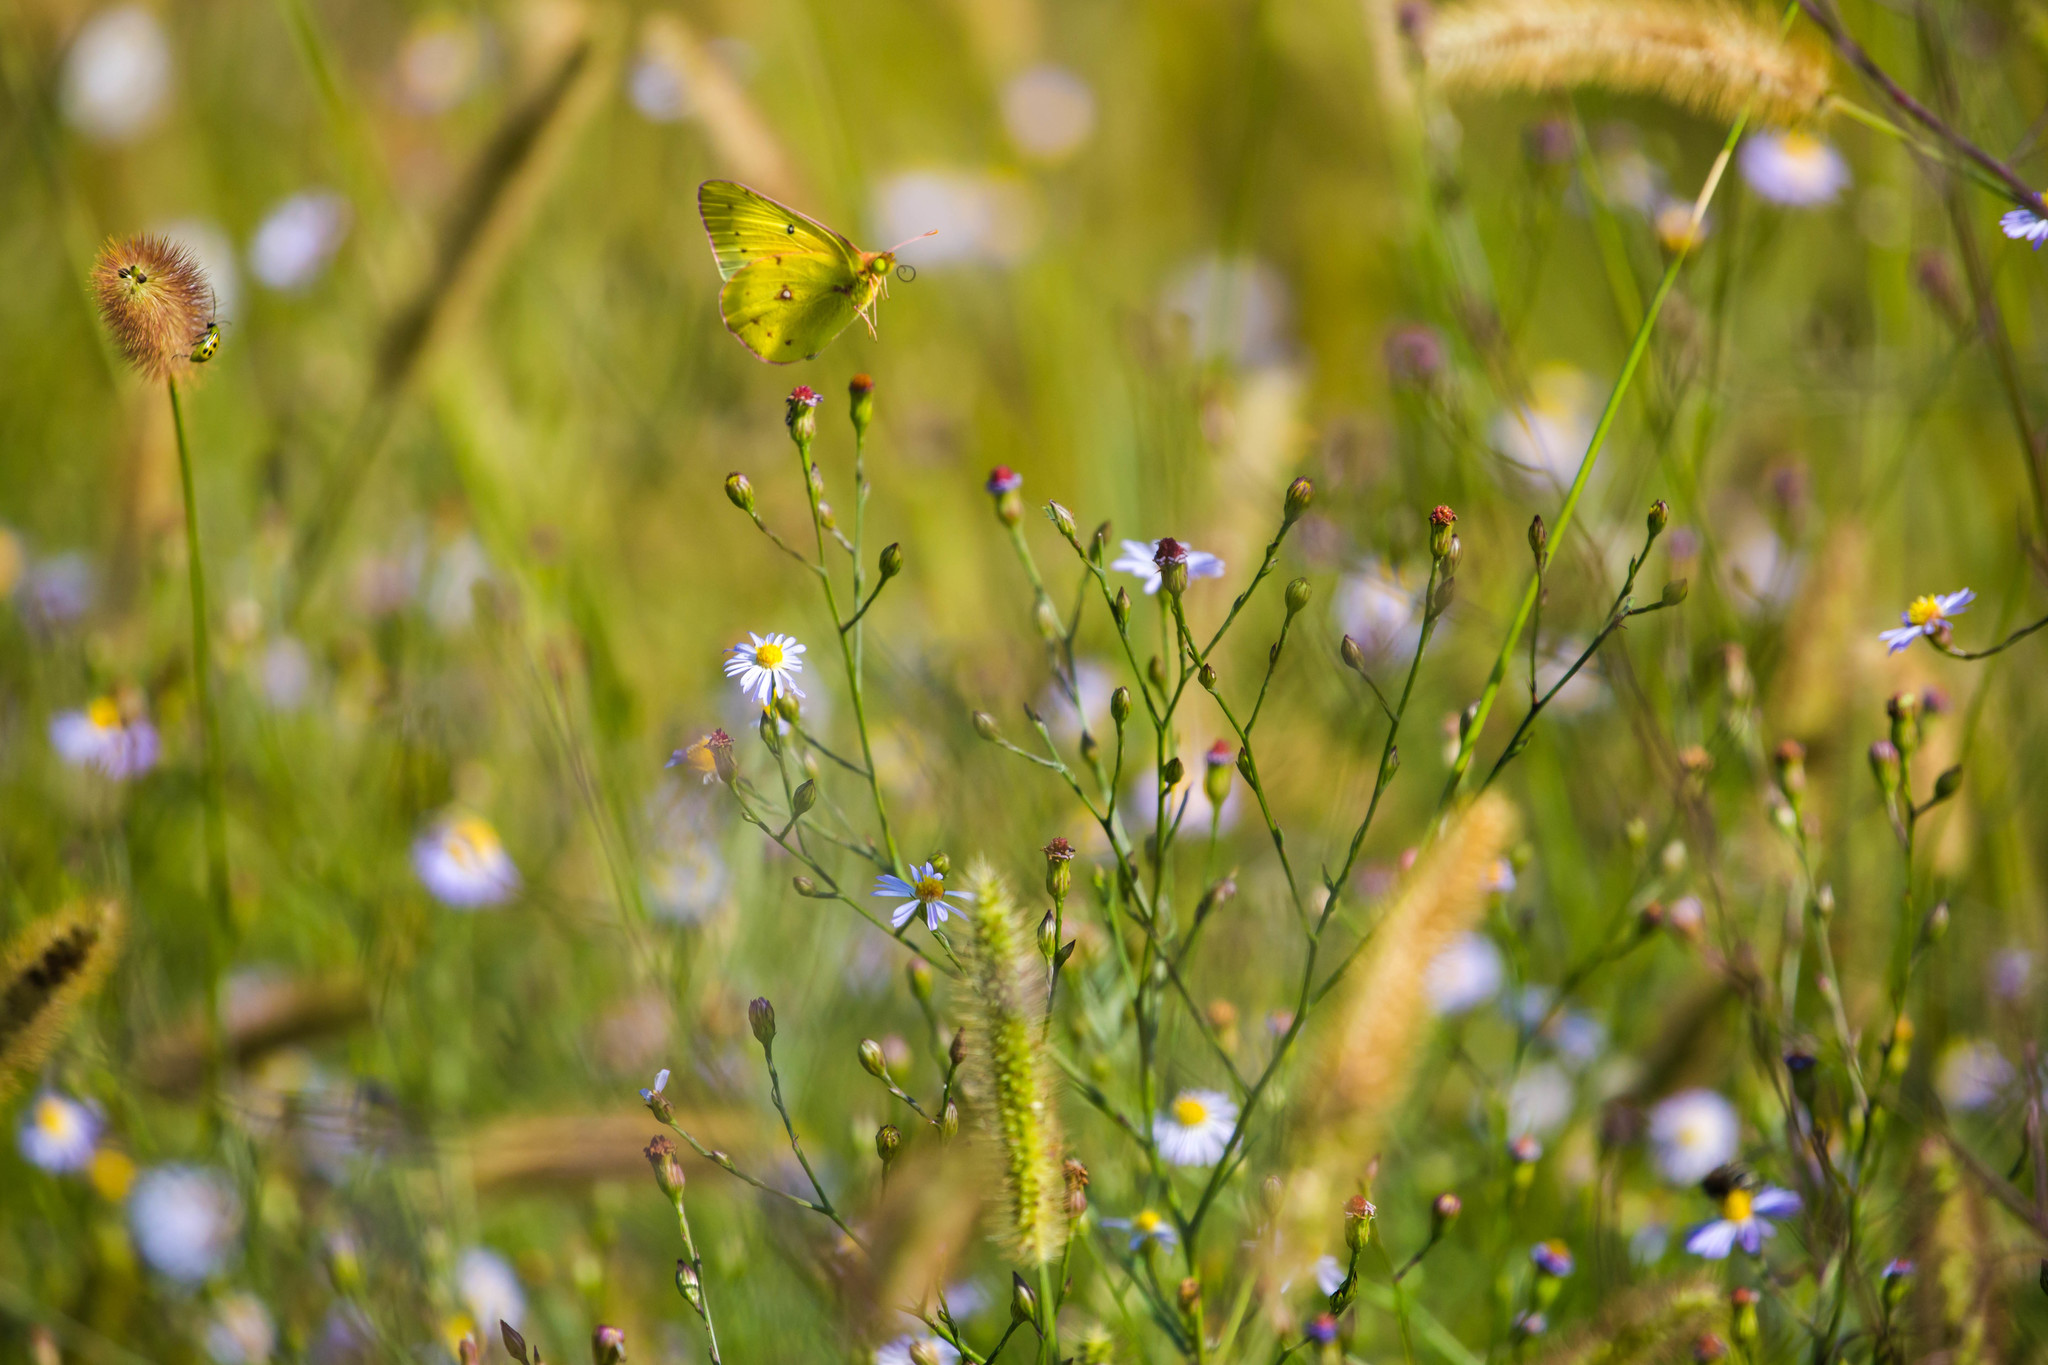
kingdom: Animalia
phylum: Arthropoda
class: Insecta
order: Lepidoptera
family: Pieridae
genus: Colias
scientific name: Colias eurytheme
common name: Alfalfa butterfly
